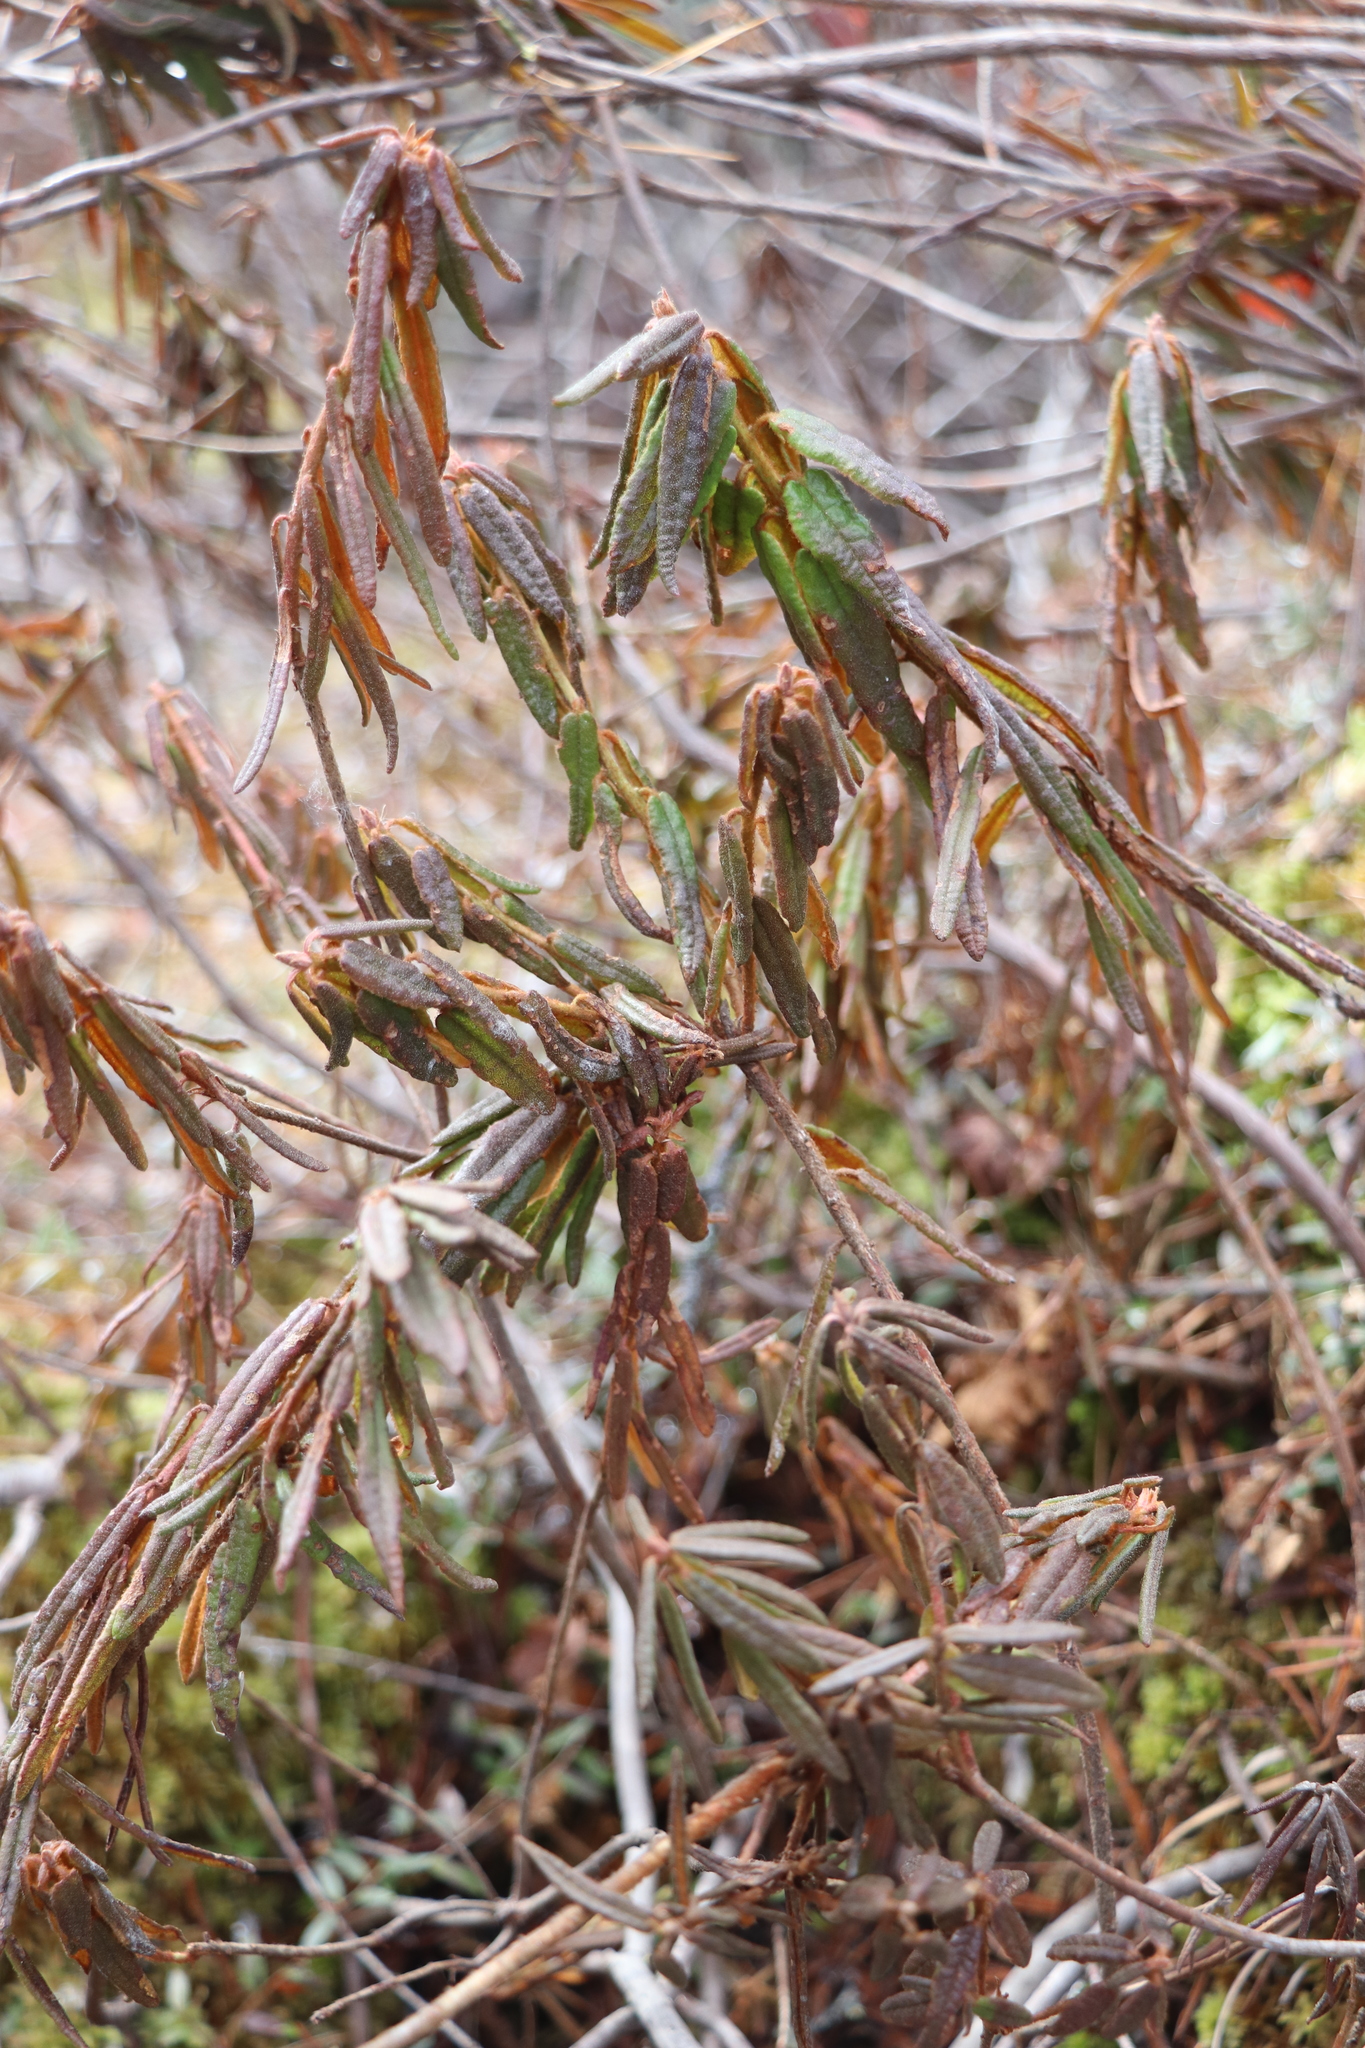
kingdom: Plantae
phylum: Tracheophyta
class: Magnoliopsida
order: Ericales
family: Ericaceae
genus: Rhododendron
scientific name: Rhododendron tomentosum
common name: Marsh labrador tea
